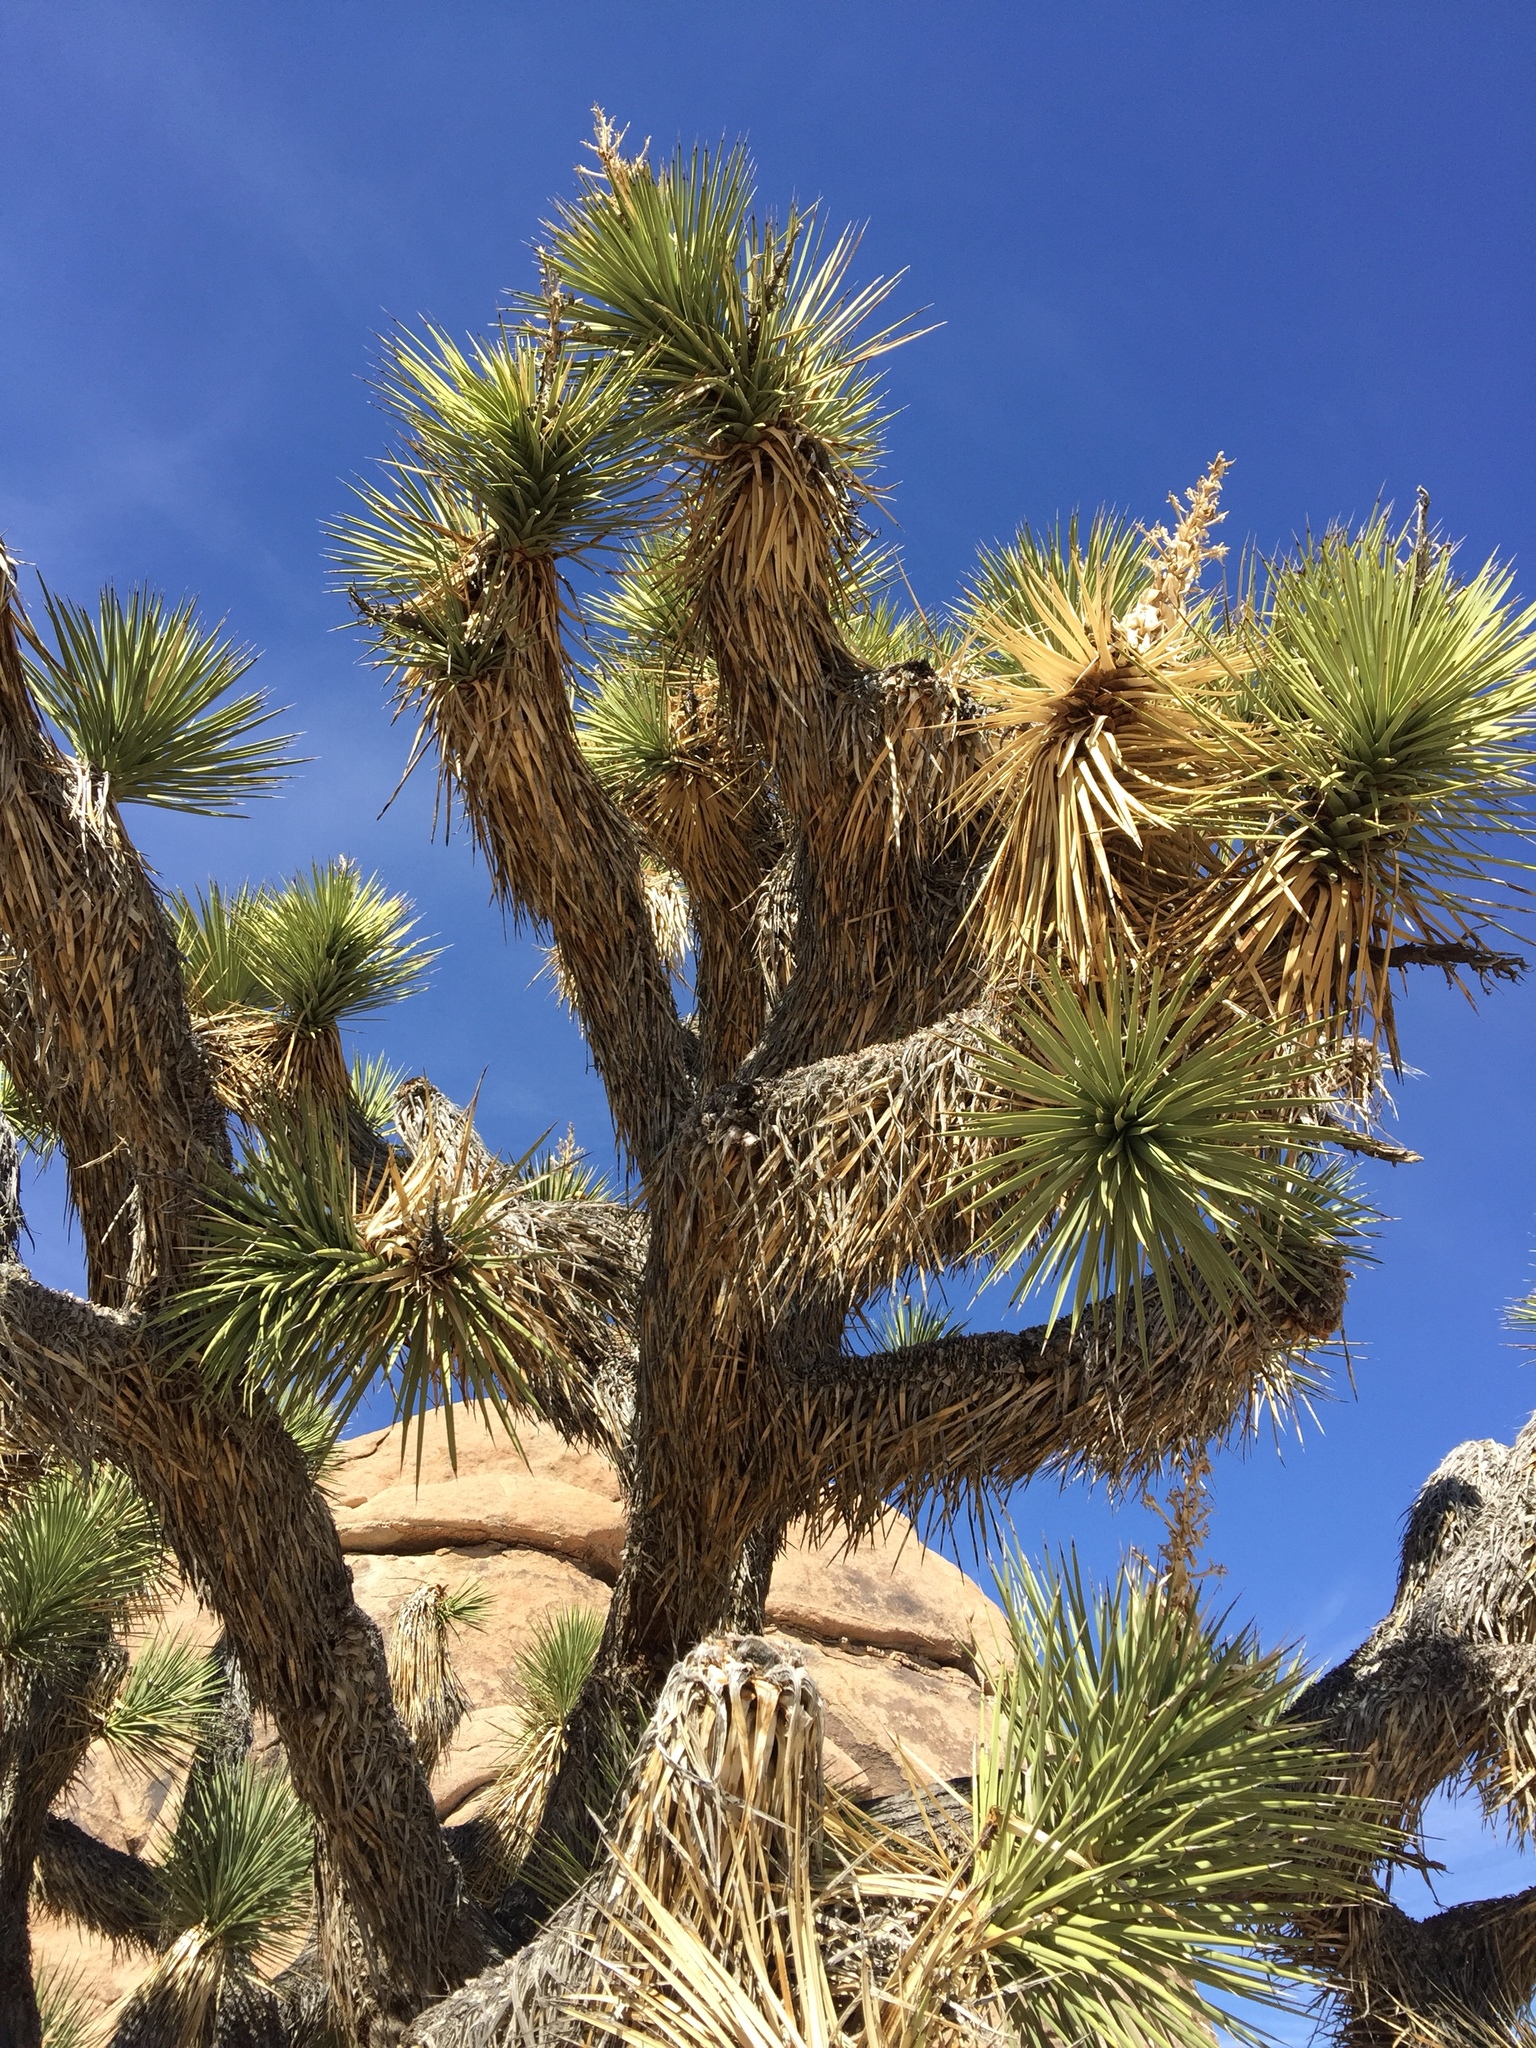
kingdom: Plantae
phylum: Tracheophyta
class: Liliopsida
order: Asparagales
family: Asparagaceae
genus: Yucca
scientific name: Yucca brevifolia
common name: Joshua tree
